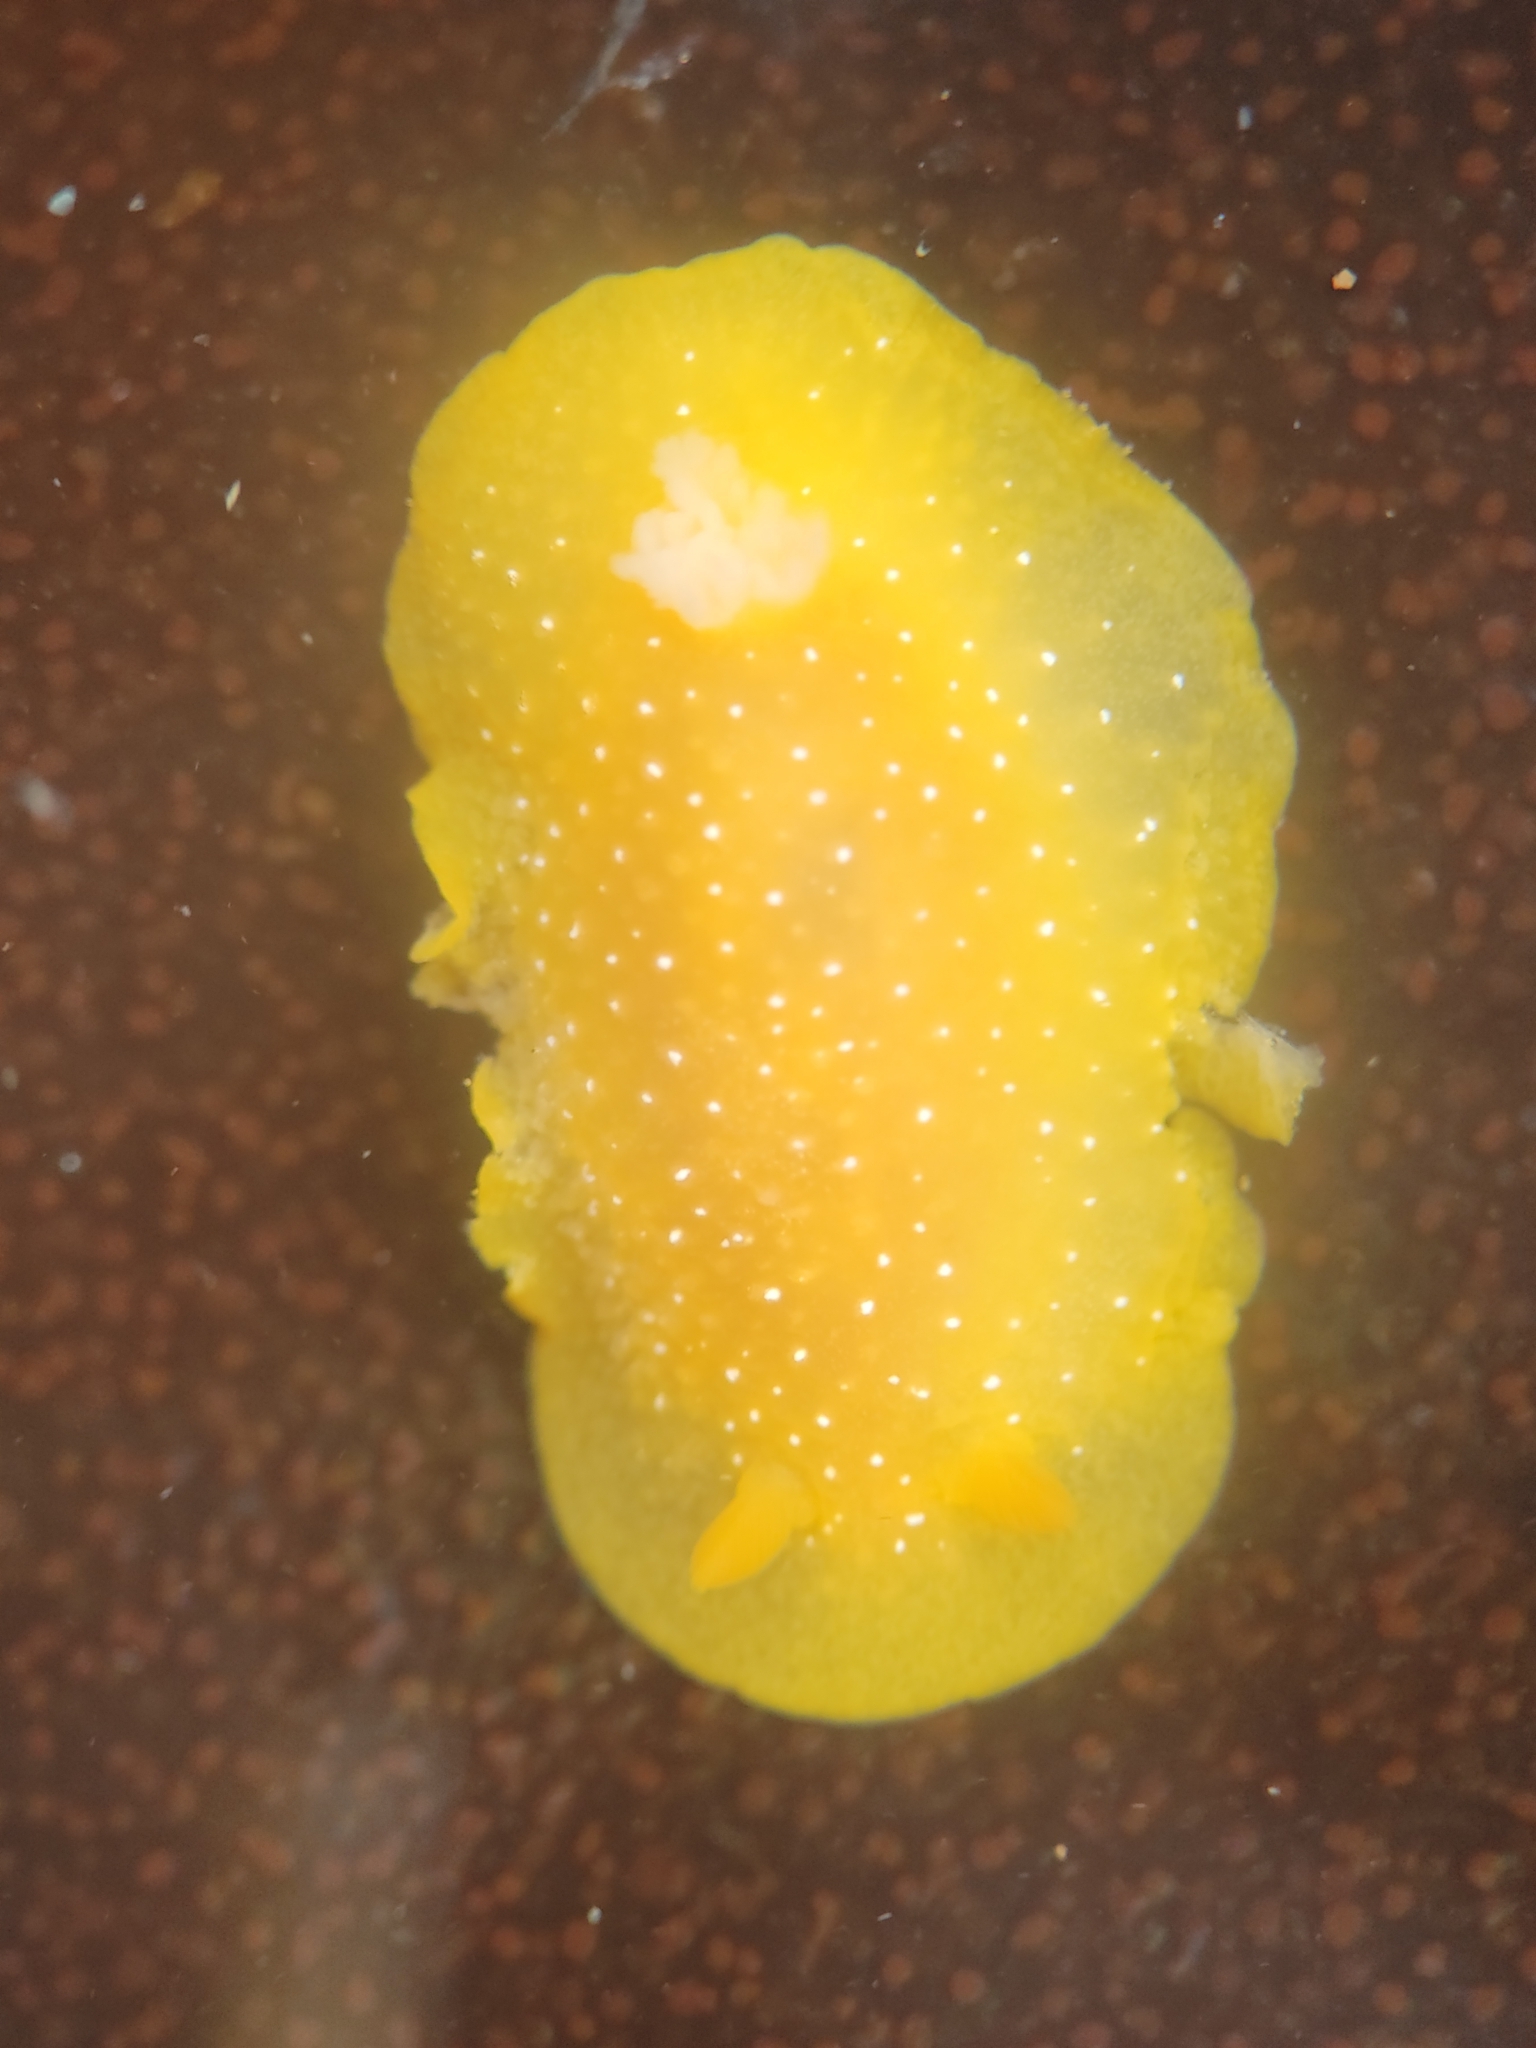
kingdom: Animalia
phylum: Mollusca
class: Gastropoda
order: Nudibranchia
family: Dendrodorididae
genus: Doriopsilla
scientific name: Doriopsilla fulva
